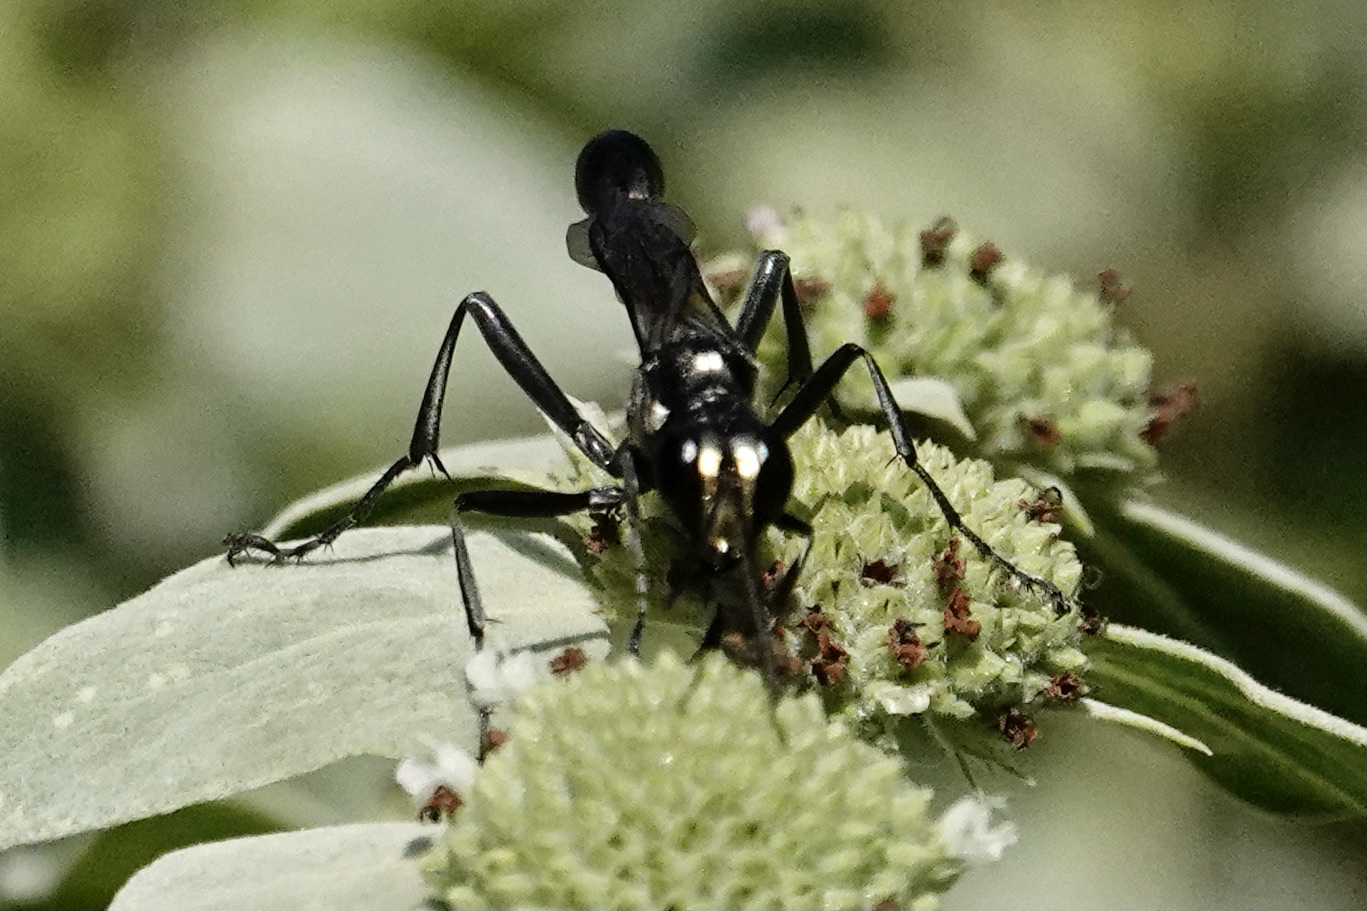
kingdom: Animalia
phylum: Arthropoda
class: Insecta
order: Hymenoptera
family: Sphecidae
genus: Eremnophila
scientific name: Eremnophila aureonotata
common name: Gold-marked thread-waisted wasp
